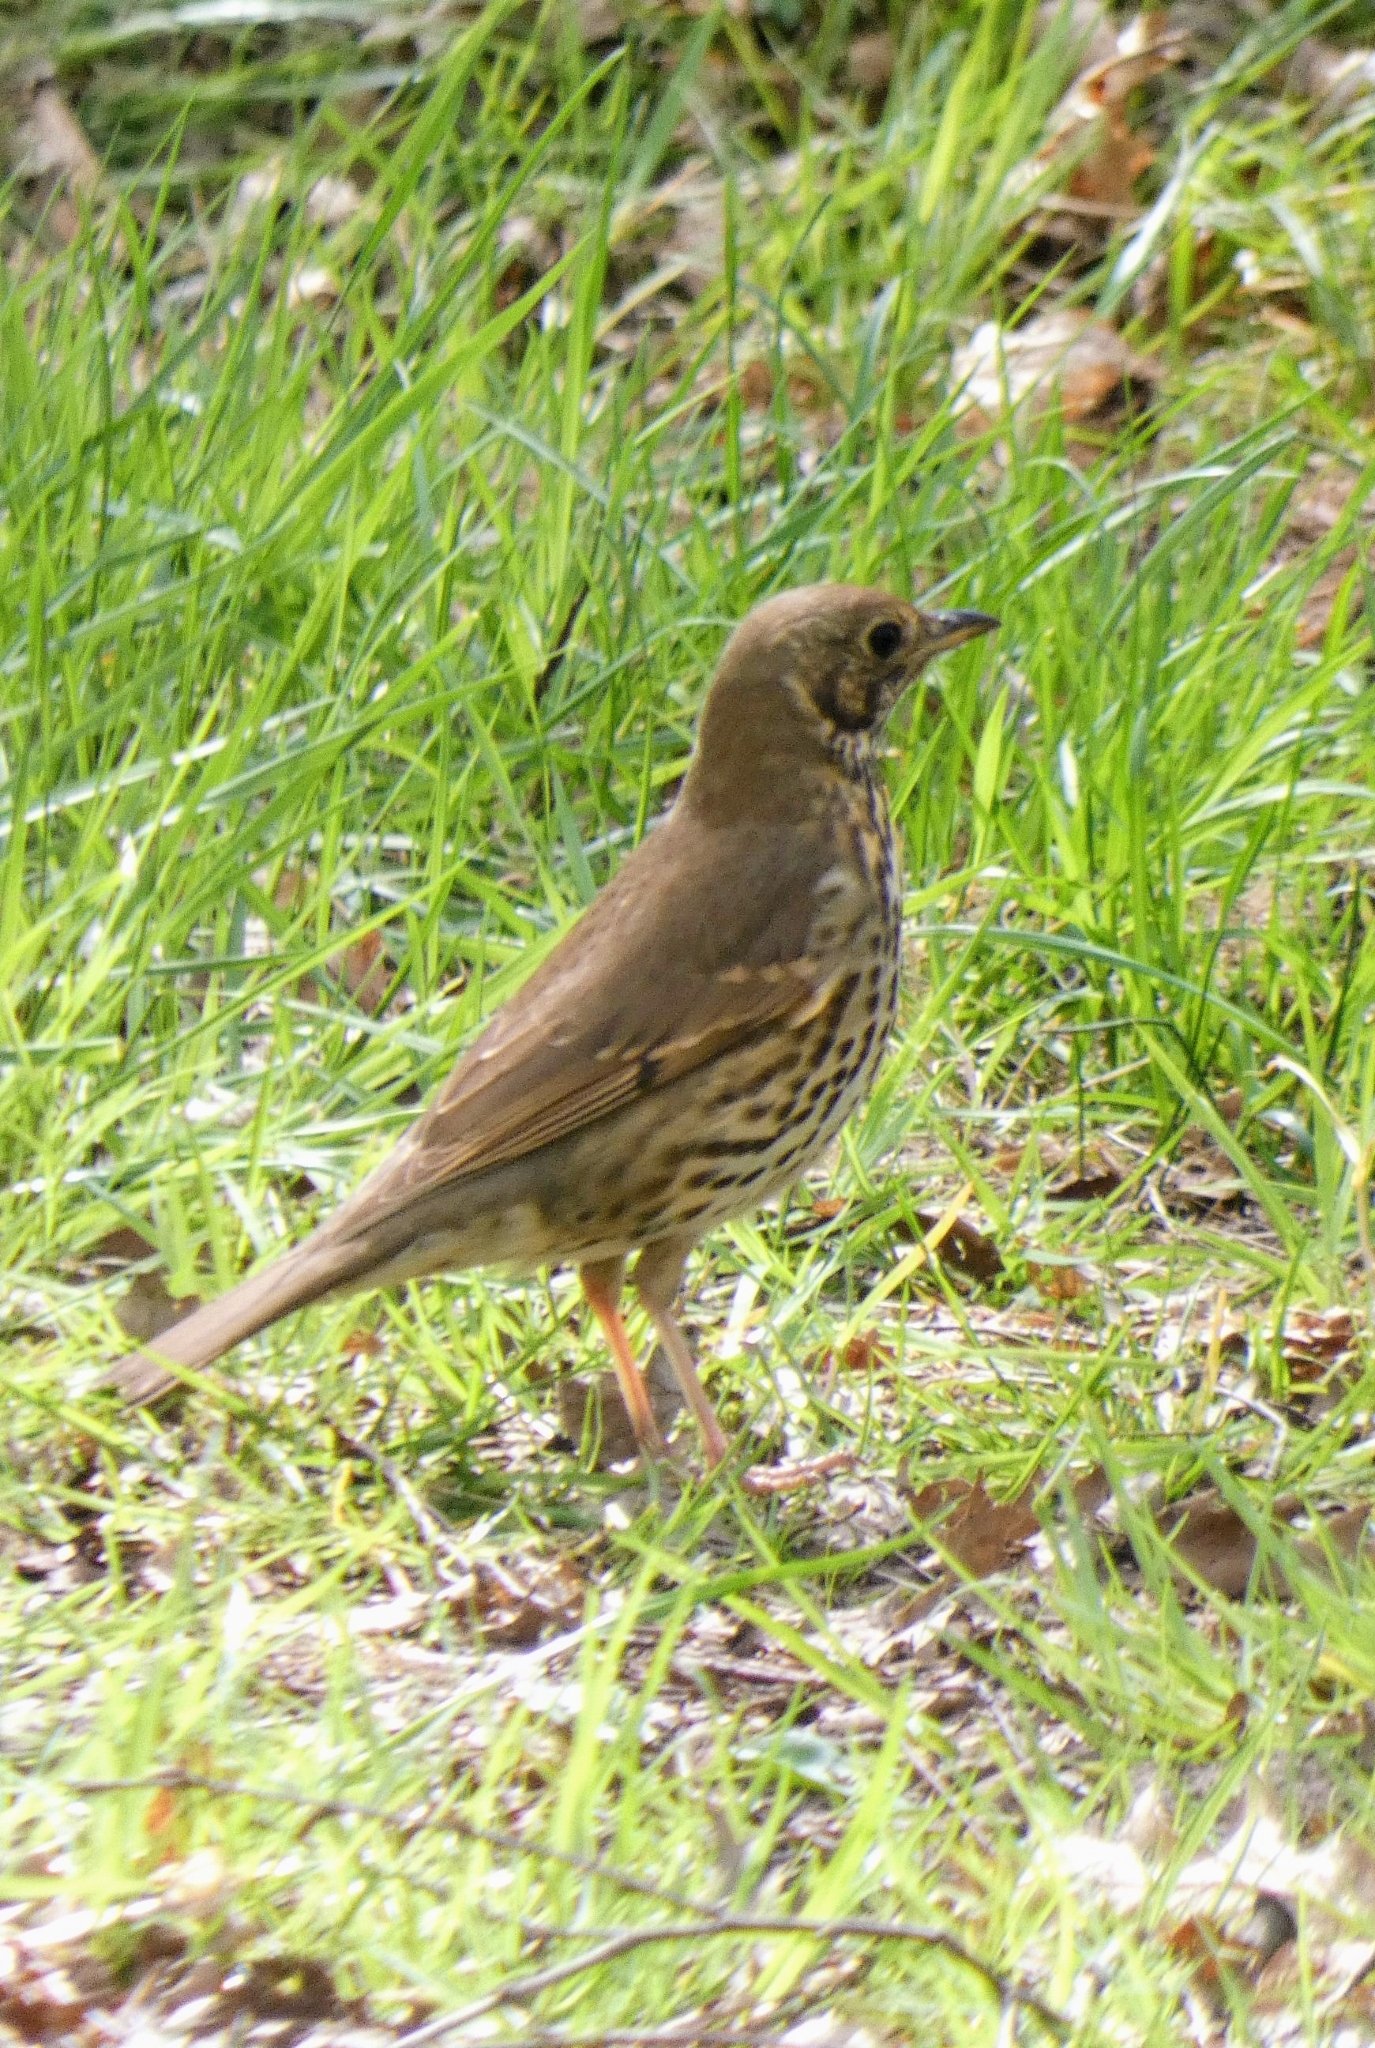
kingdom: Animalia
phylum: Chordata
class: Aves
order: Passeriformes
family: Turdidae
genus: Turdus
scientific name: Turdus philomelos
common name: Song thrush
